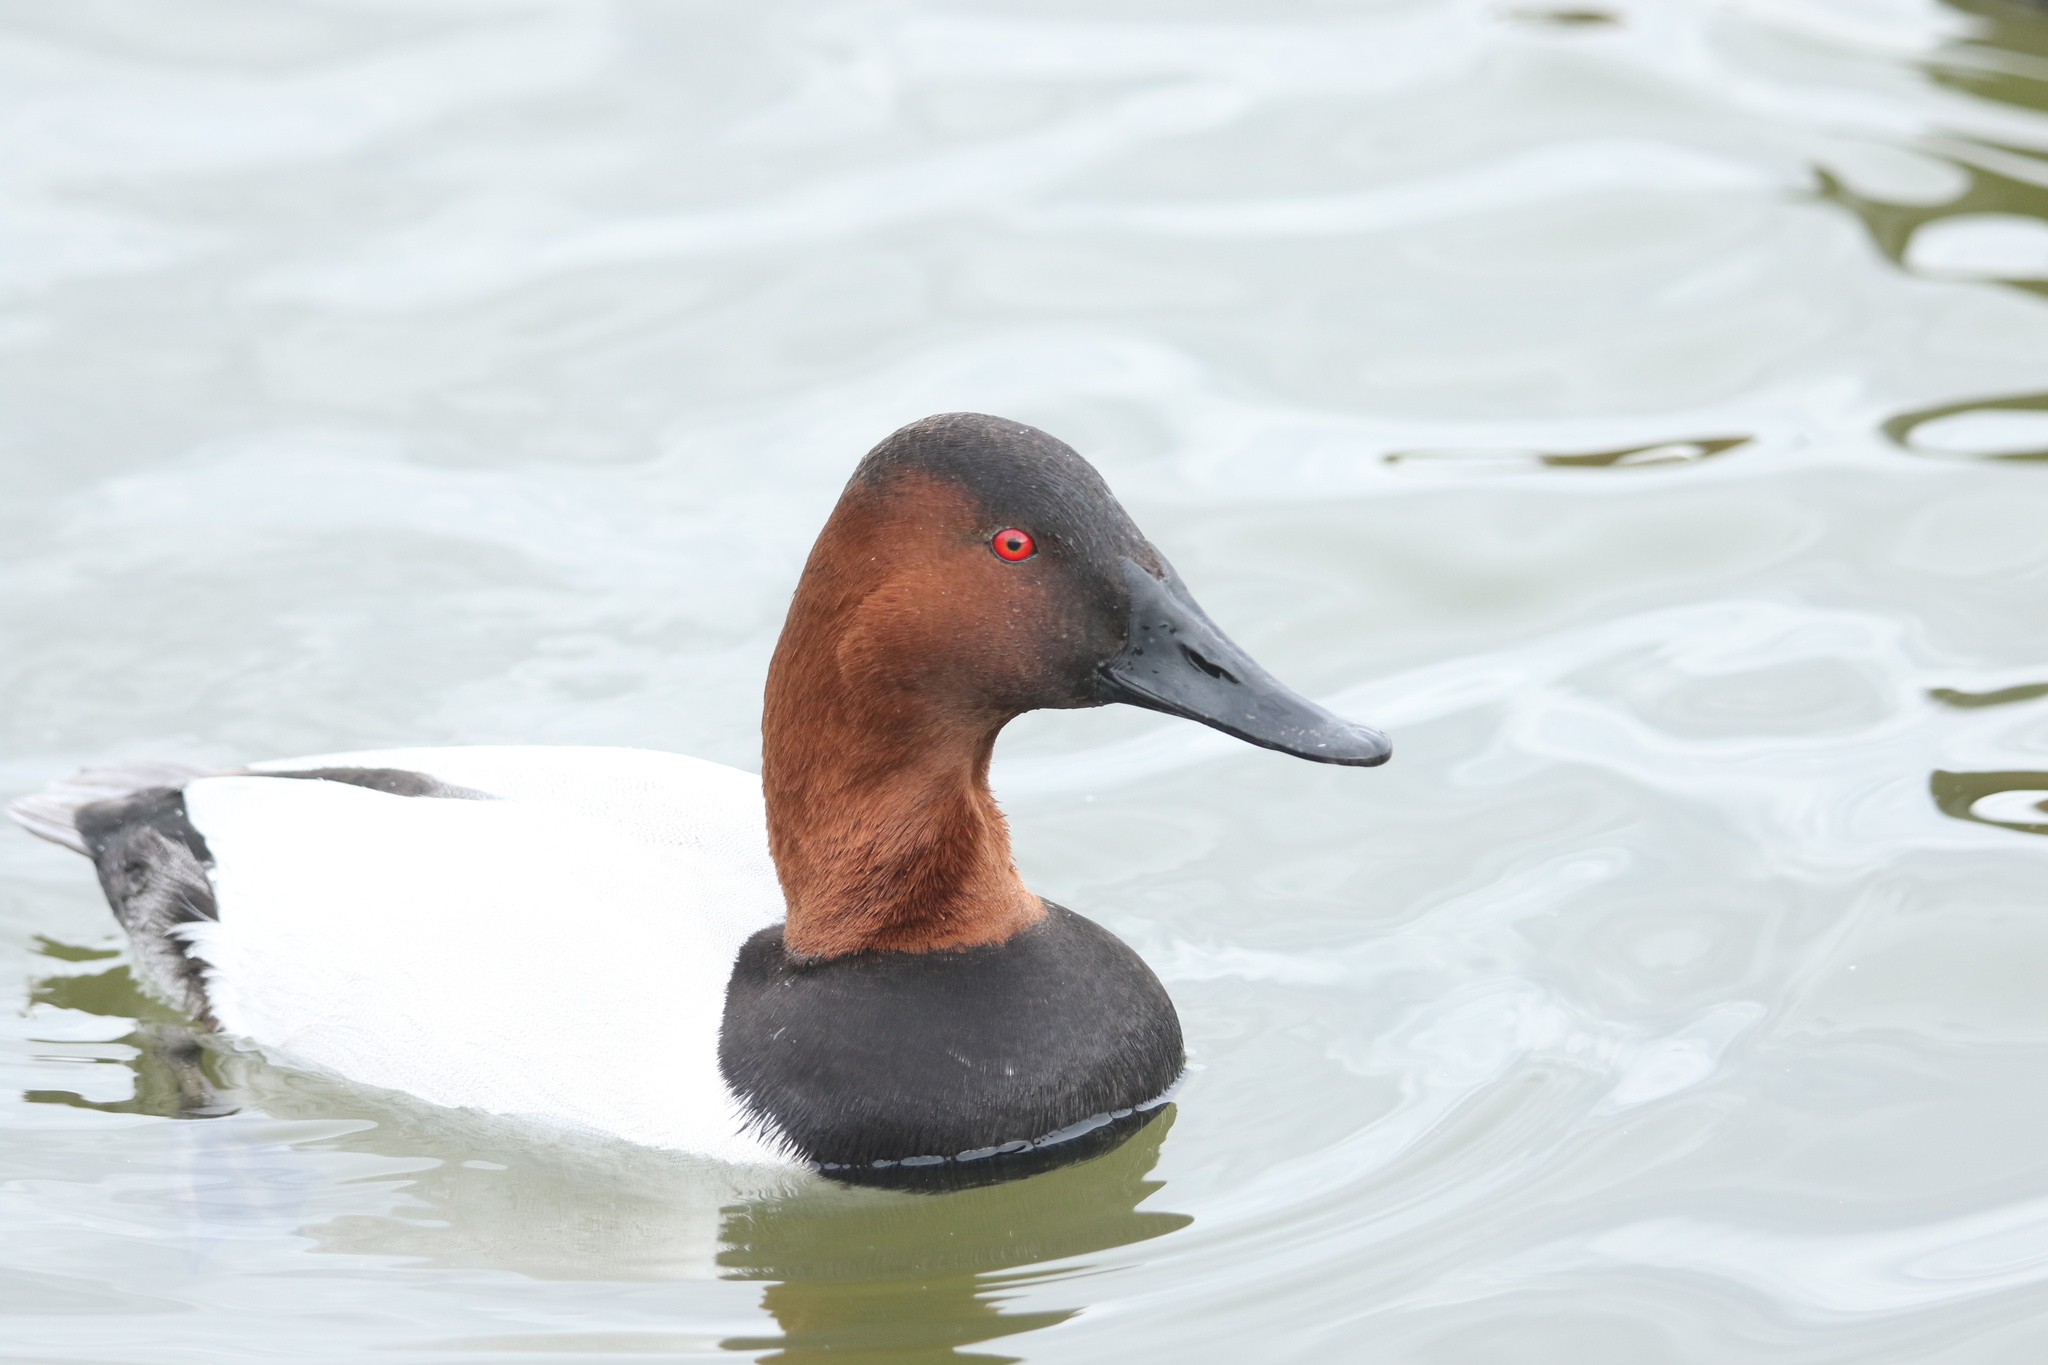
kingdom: Animalia
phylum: Chordata
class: Aves
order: Anseriformes
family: Anatidae
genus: Aythya
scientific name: Aythya valisineria
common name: Canvasback
